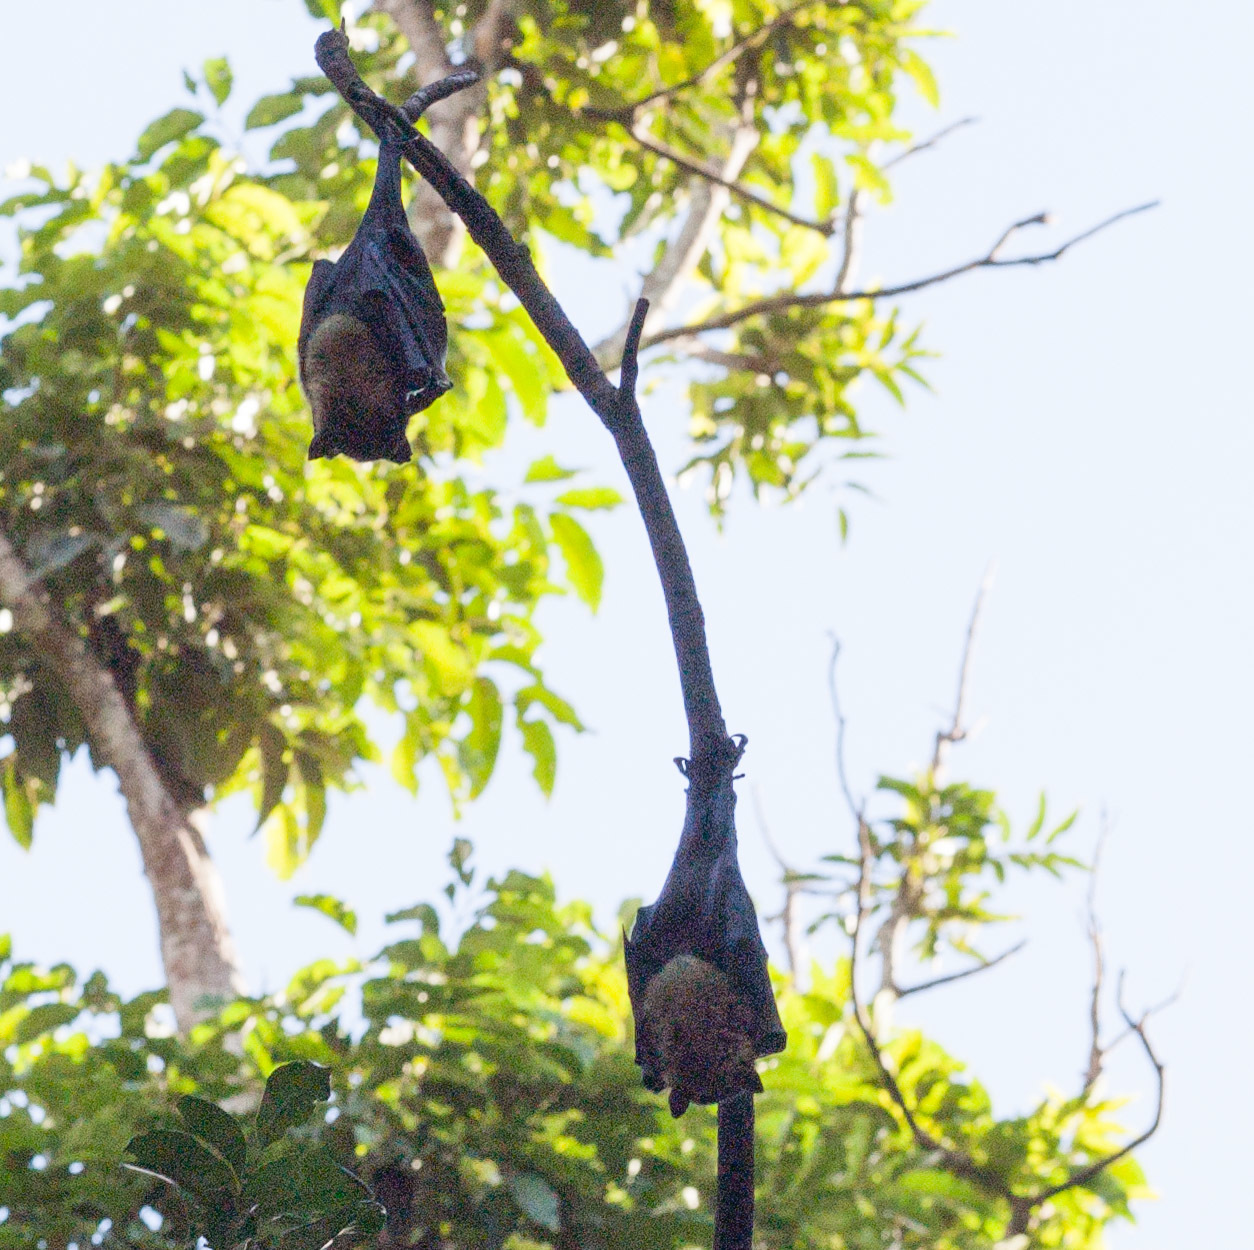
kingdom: Animalia
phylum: Chordata
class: Mammalia
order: Chiroptera
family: Pteropodidae
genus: Pteropus
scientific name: Pteropus conspicillatus
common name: Spectacled flying fox
